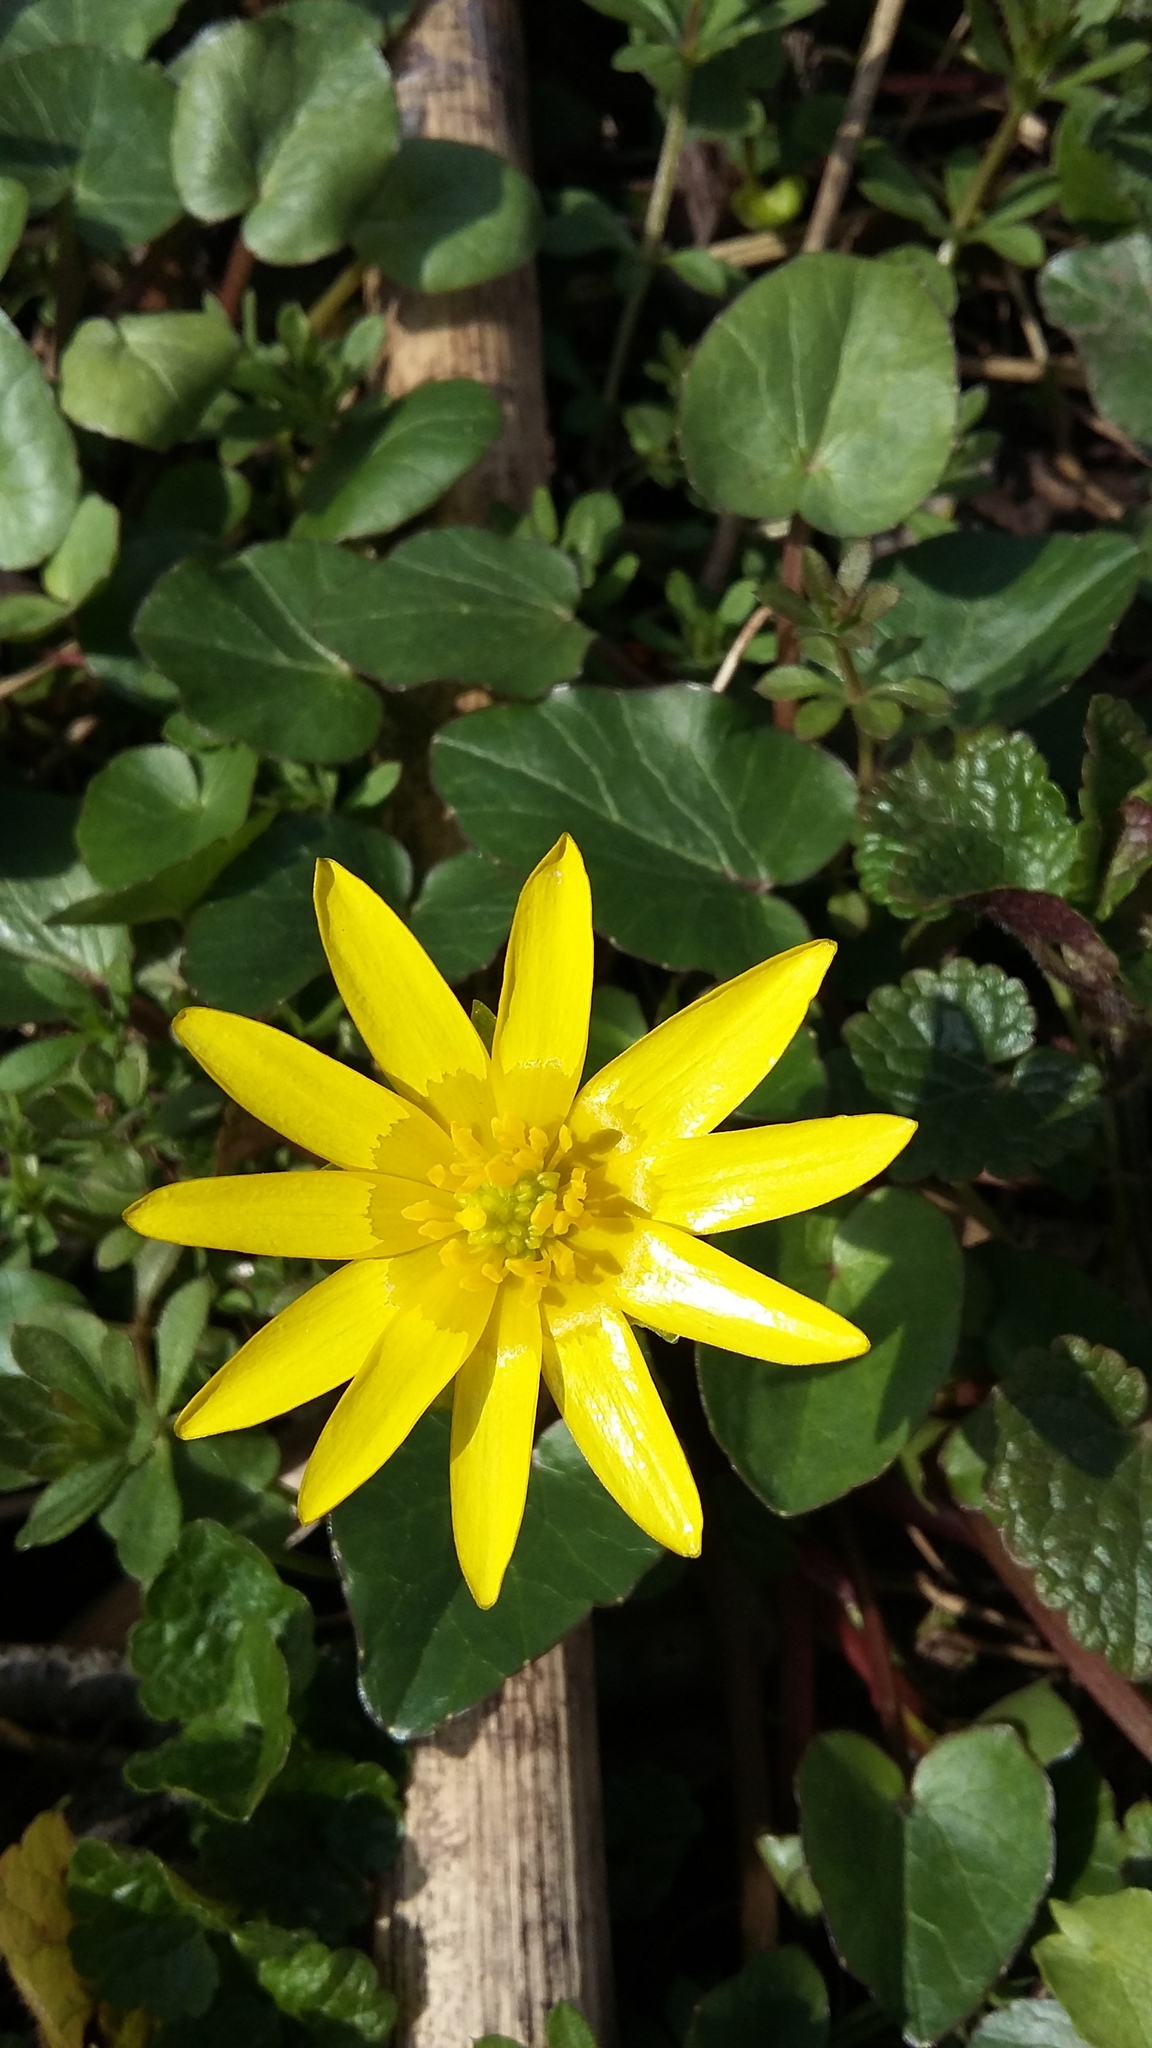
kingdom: Plantae
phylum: Tracheophyta
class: Magnoliopsida
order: Ranunculales
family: Ranunculaceae
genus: Ficaria
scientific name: Ficaria verna
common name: Lesser celandine
